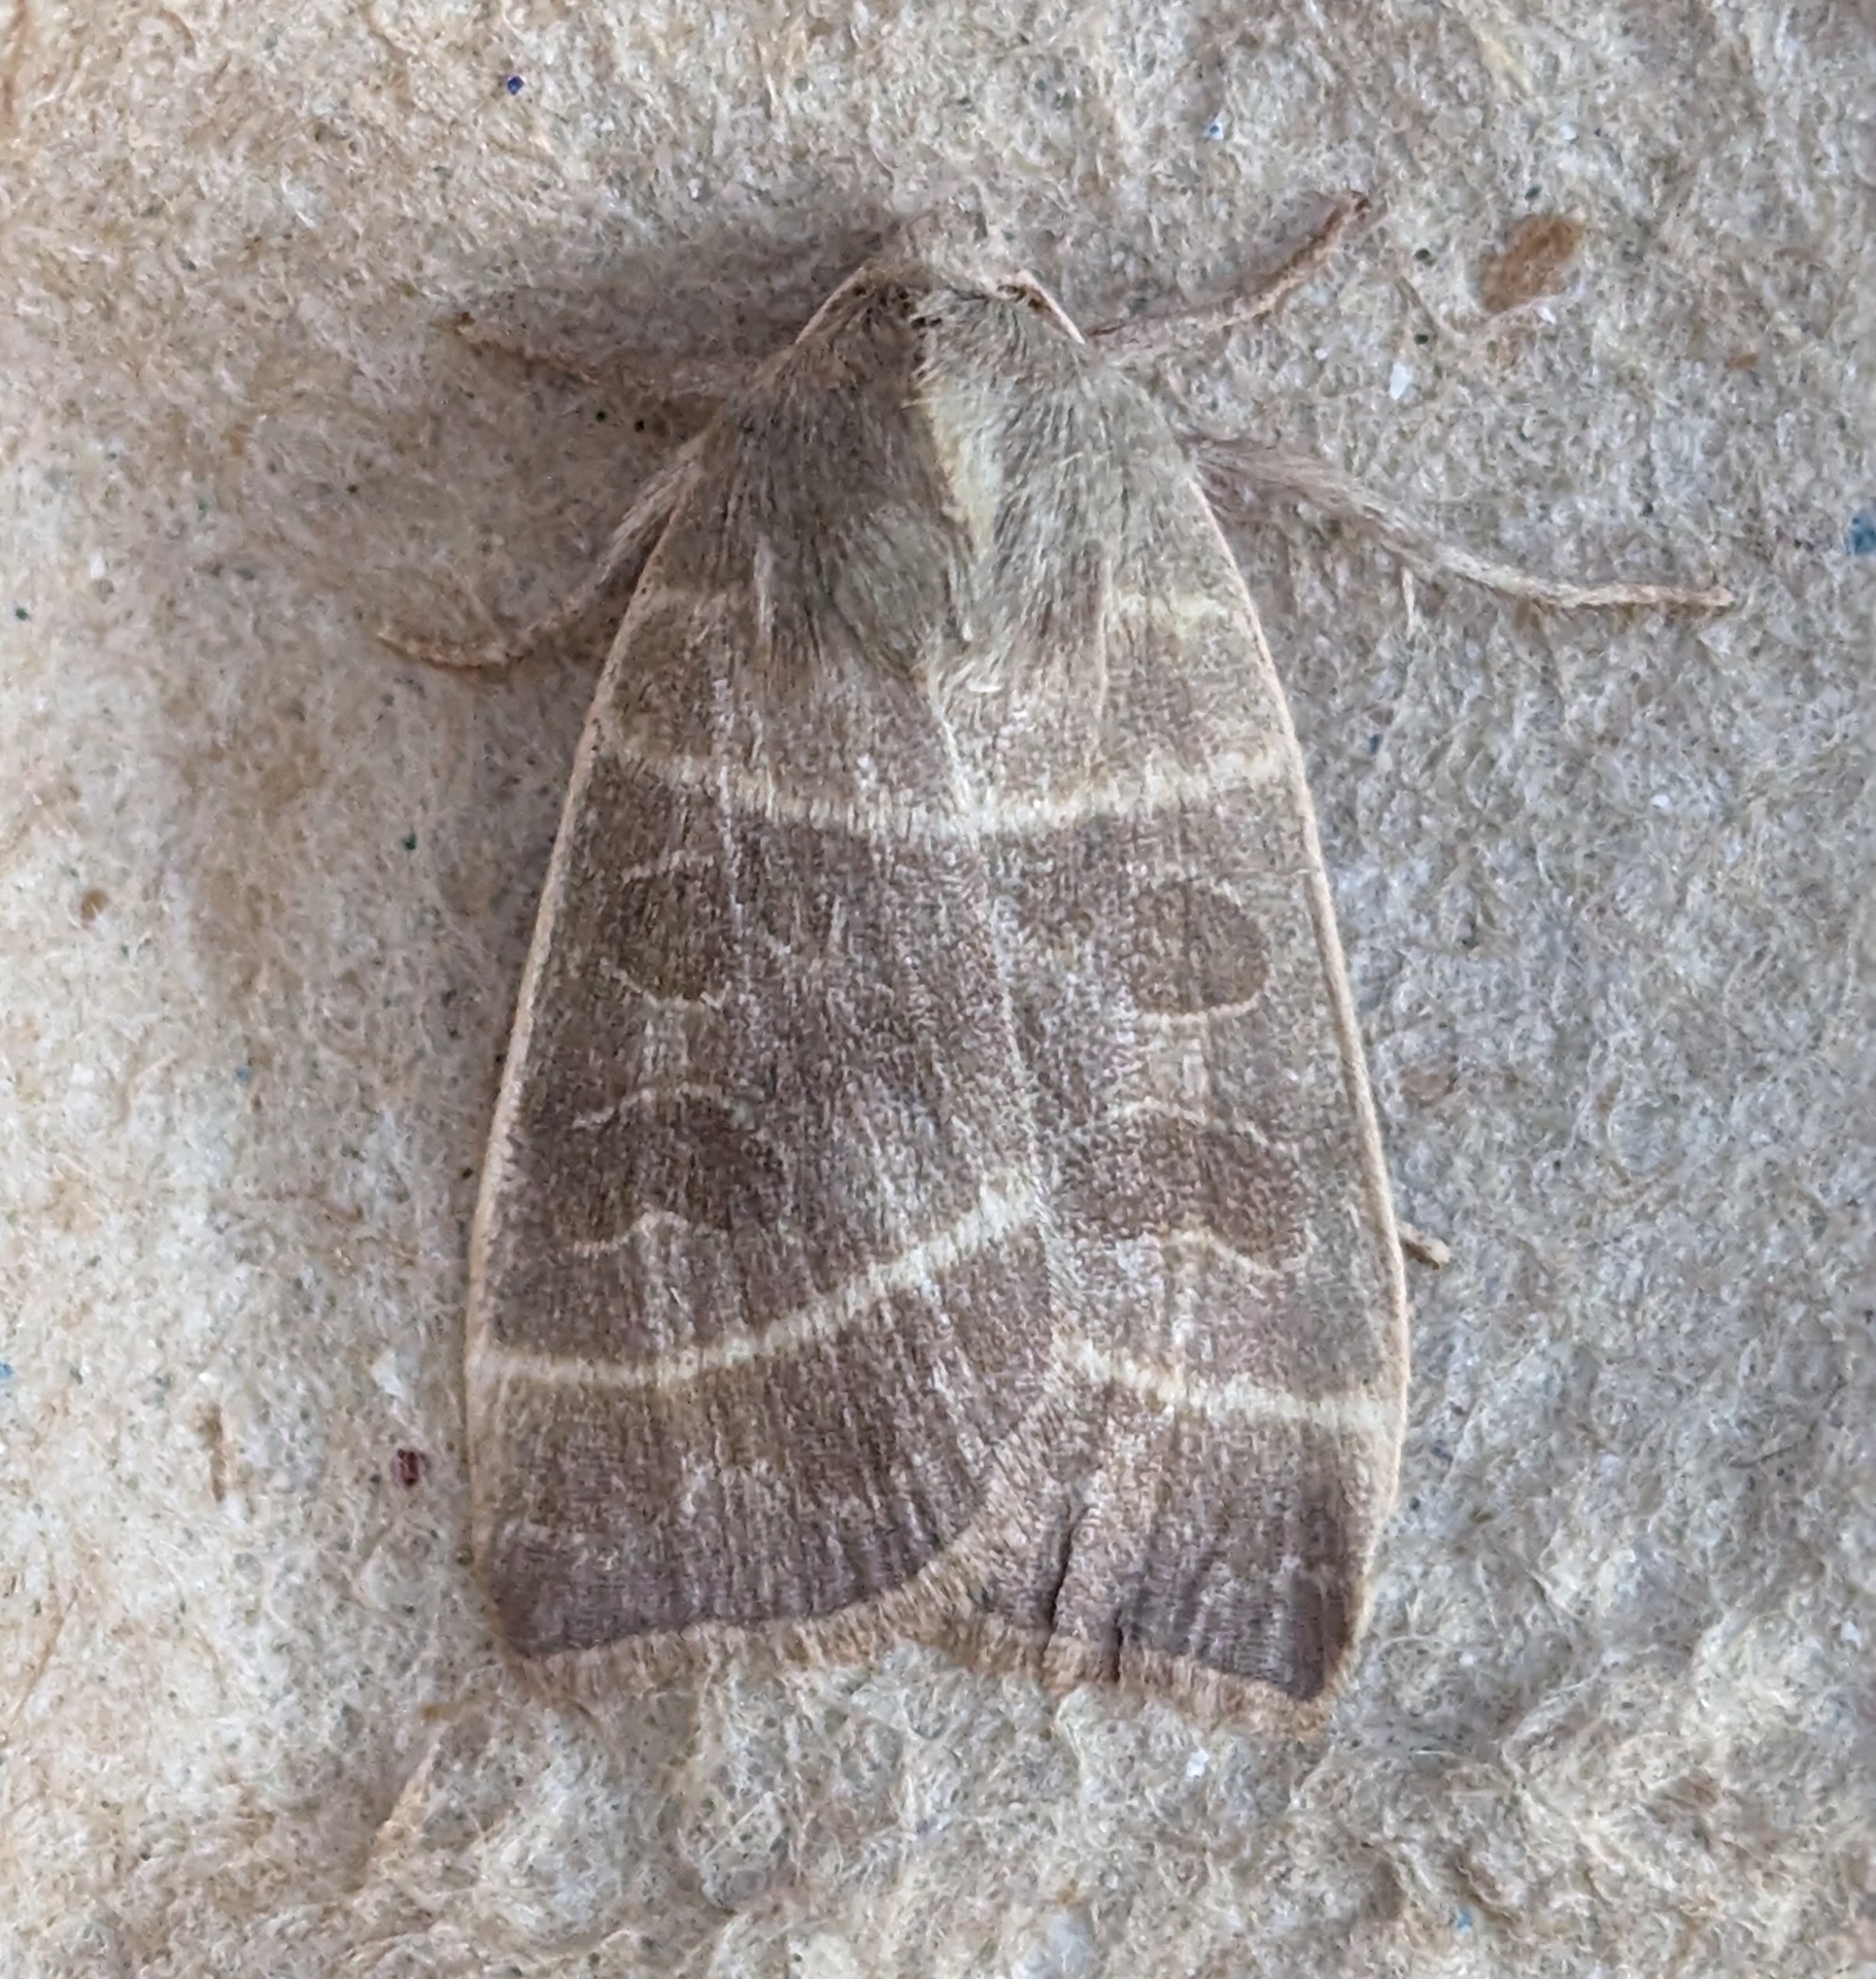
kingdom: Animalia
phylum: Arthropoda
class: Insecta
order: Lepidoptera
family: Noctuidae
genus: Ipimorpha
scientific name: Ipimorpha pleonectusa
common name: Even-lined sallow
